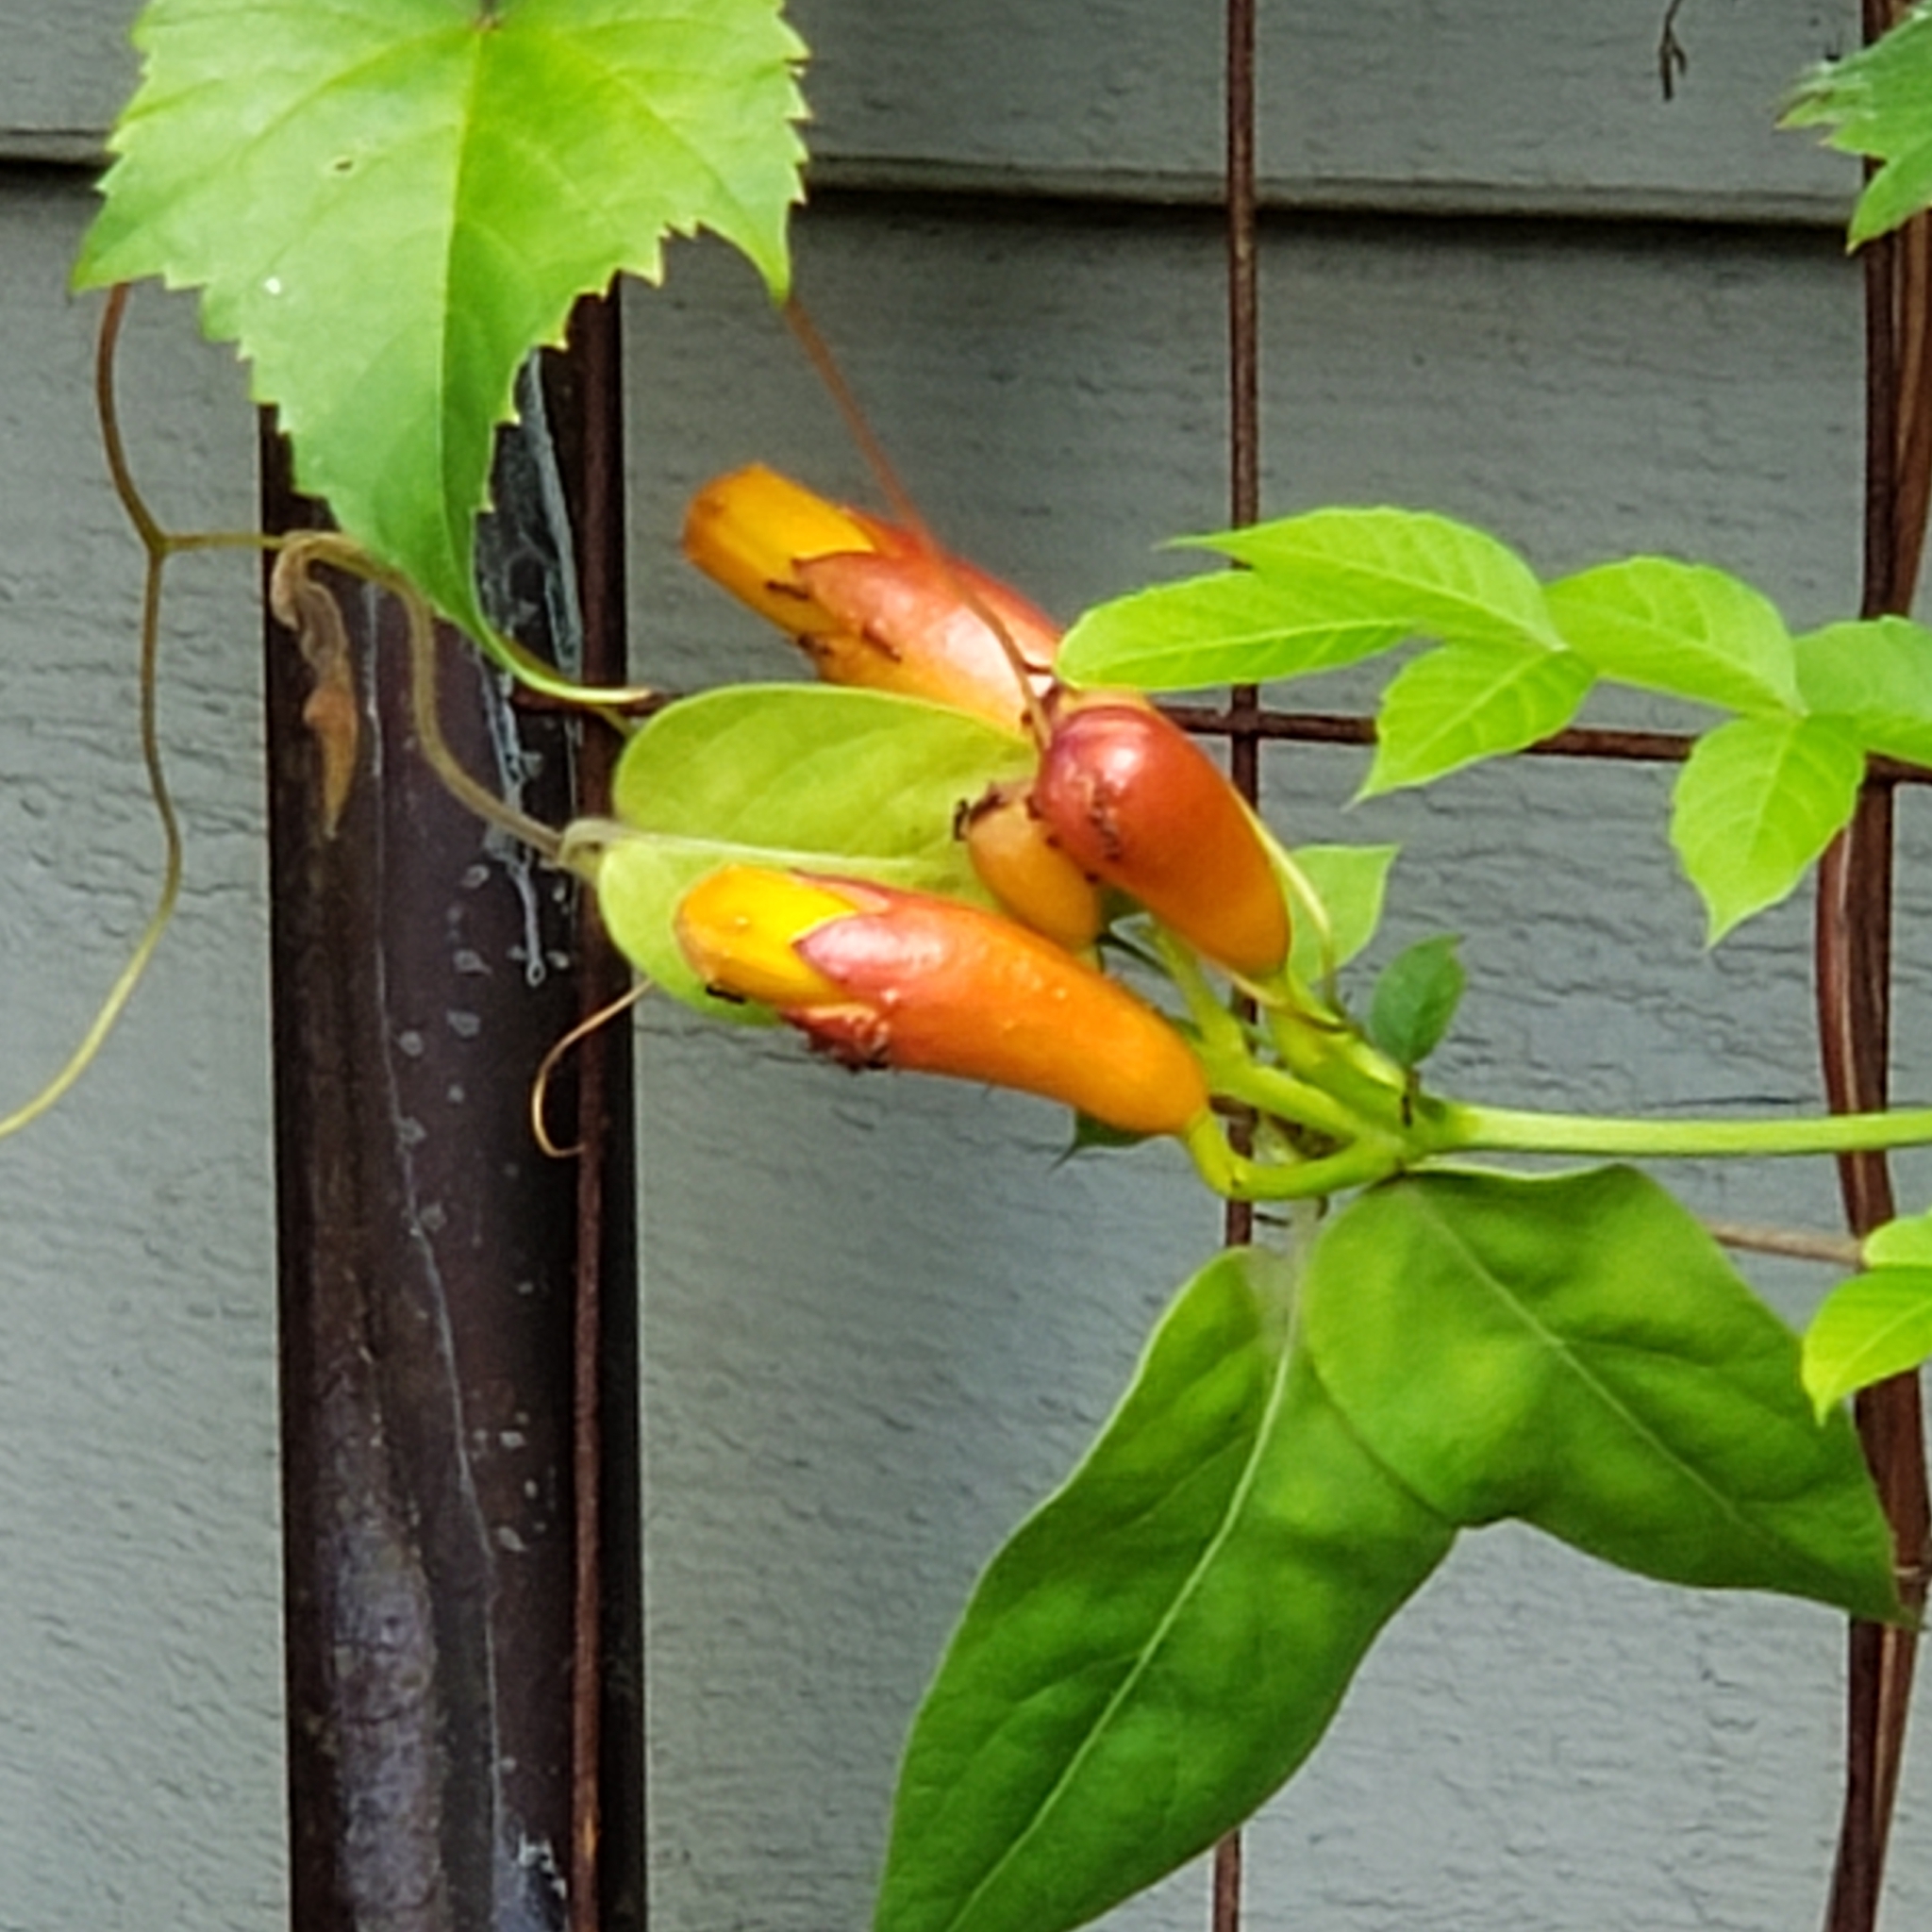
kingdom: Plantae
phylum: Tracheophyta
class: Magnoliopsida
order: Lamiales
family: Bignoniaceae
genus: Campsis
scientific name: Campsis radicans
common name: Trumpet-creeper
